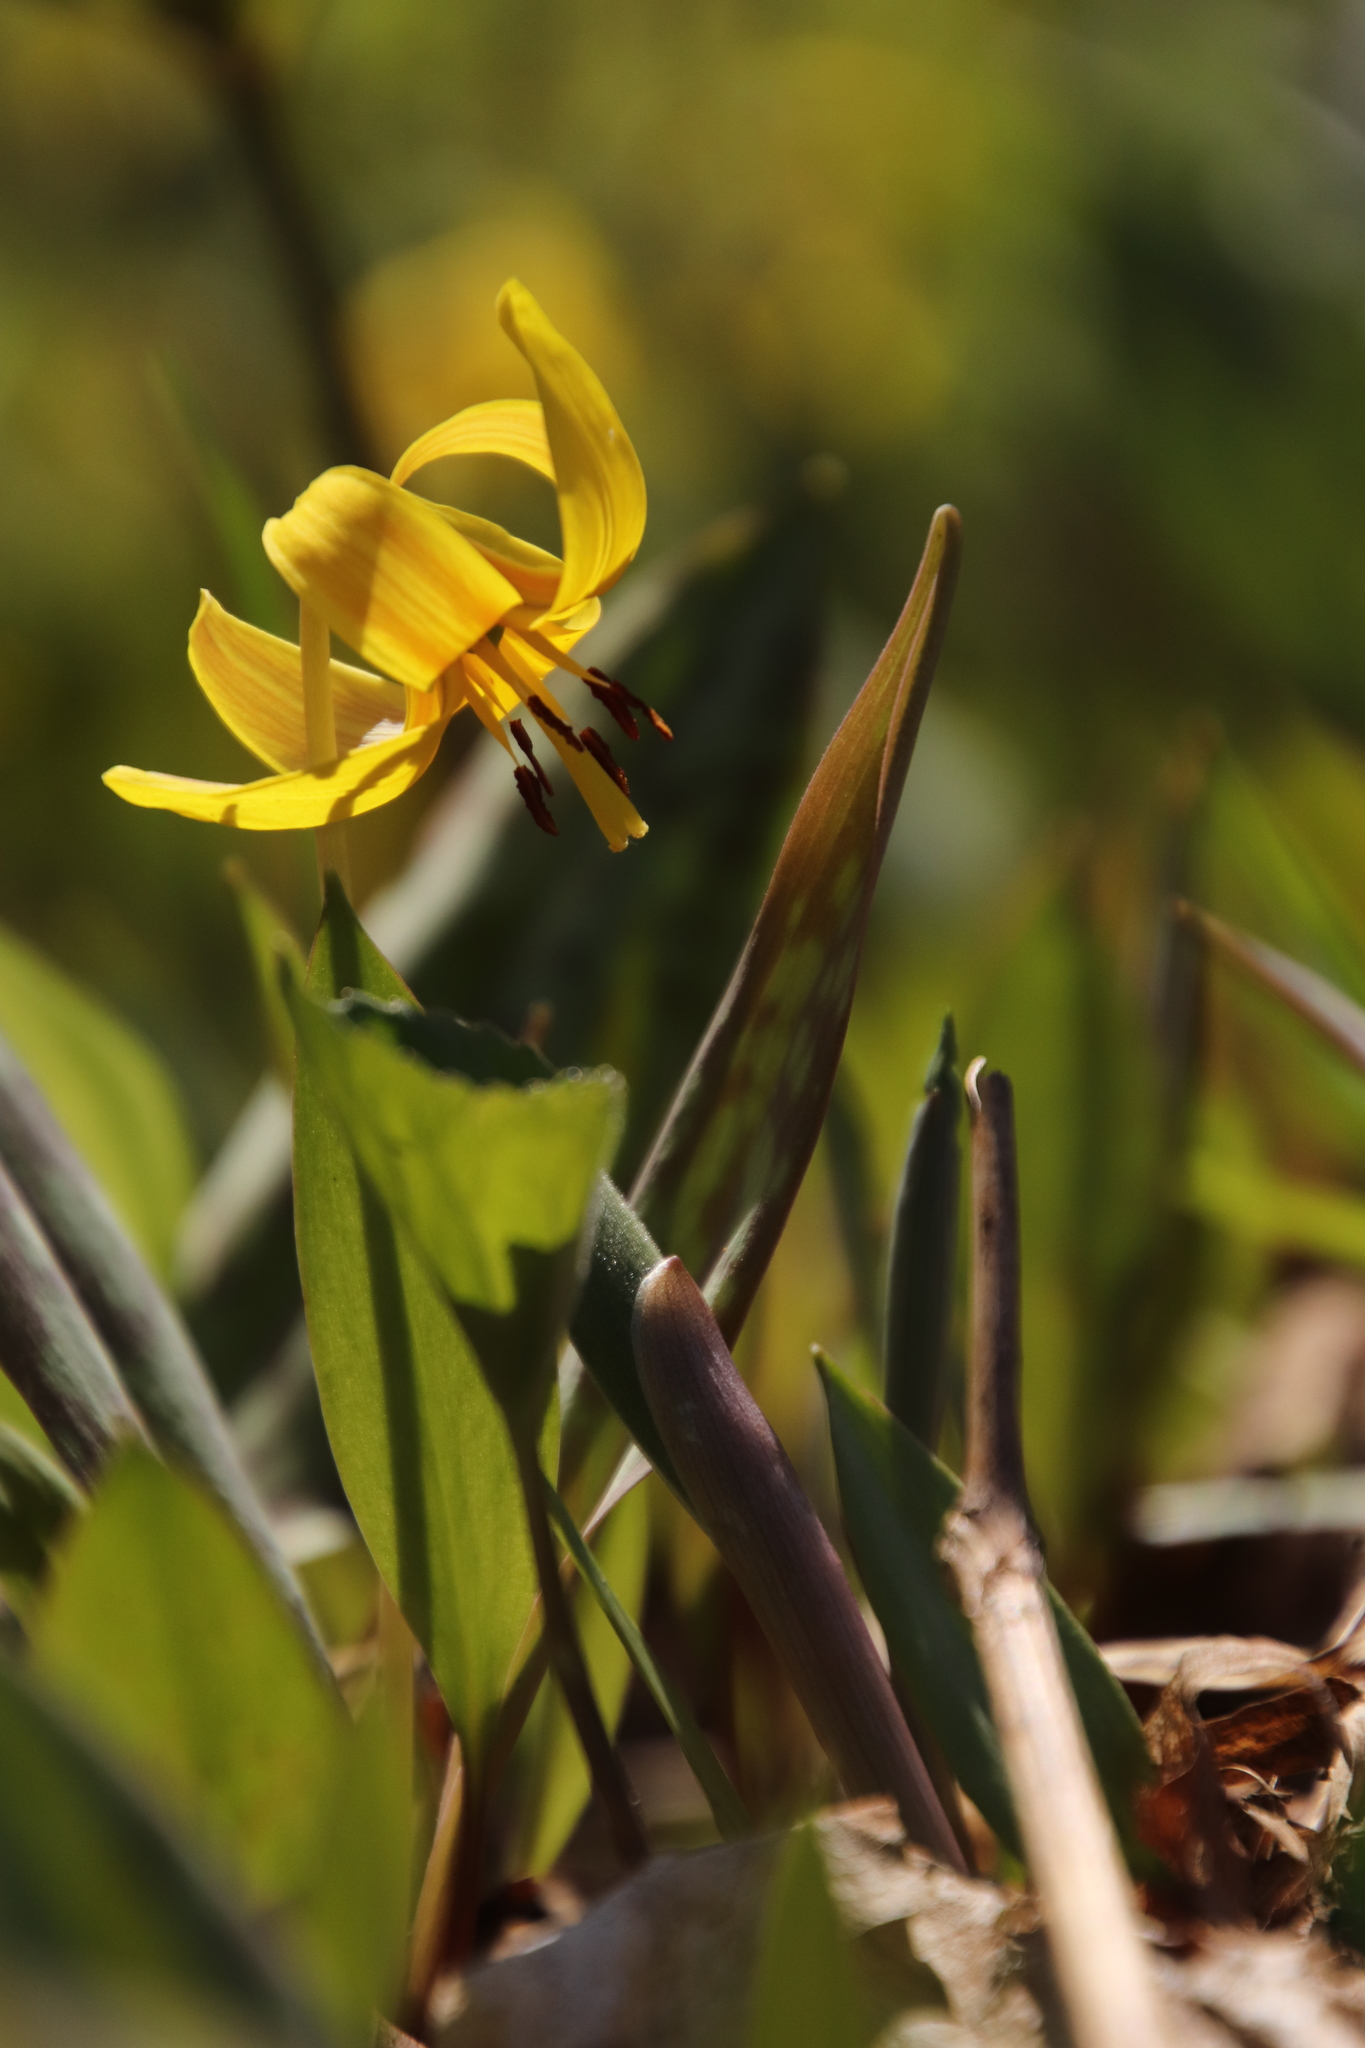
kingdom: Plantae
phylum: Tracheophyta
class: Liliopsida
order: Liliales
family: Liliaceae
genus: Erythronium
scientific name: Erythronium americanum
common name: Yellow adder's-tongue
